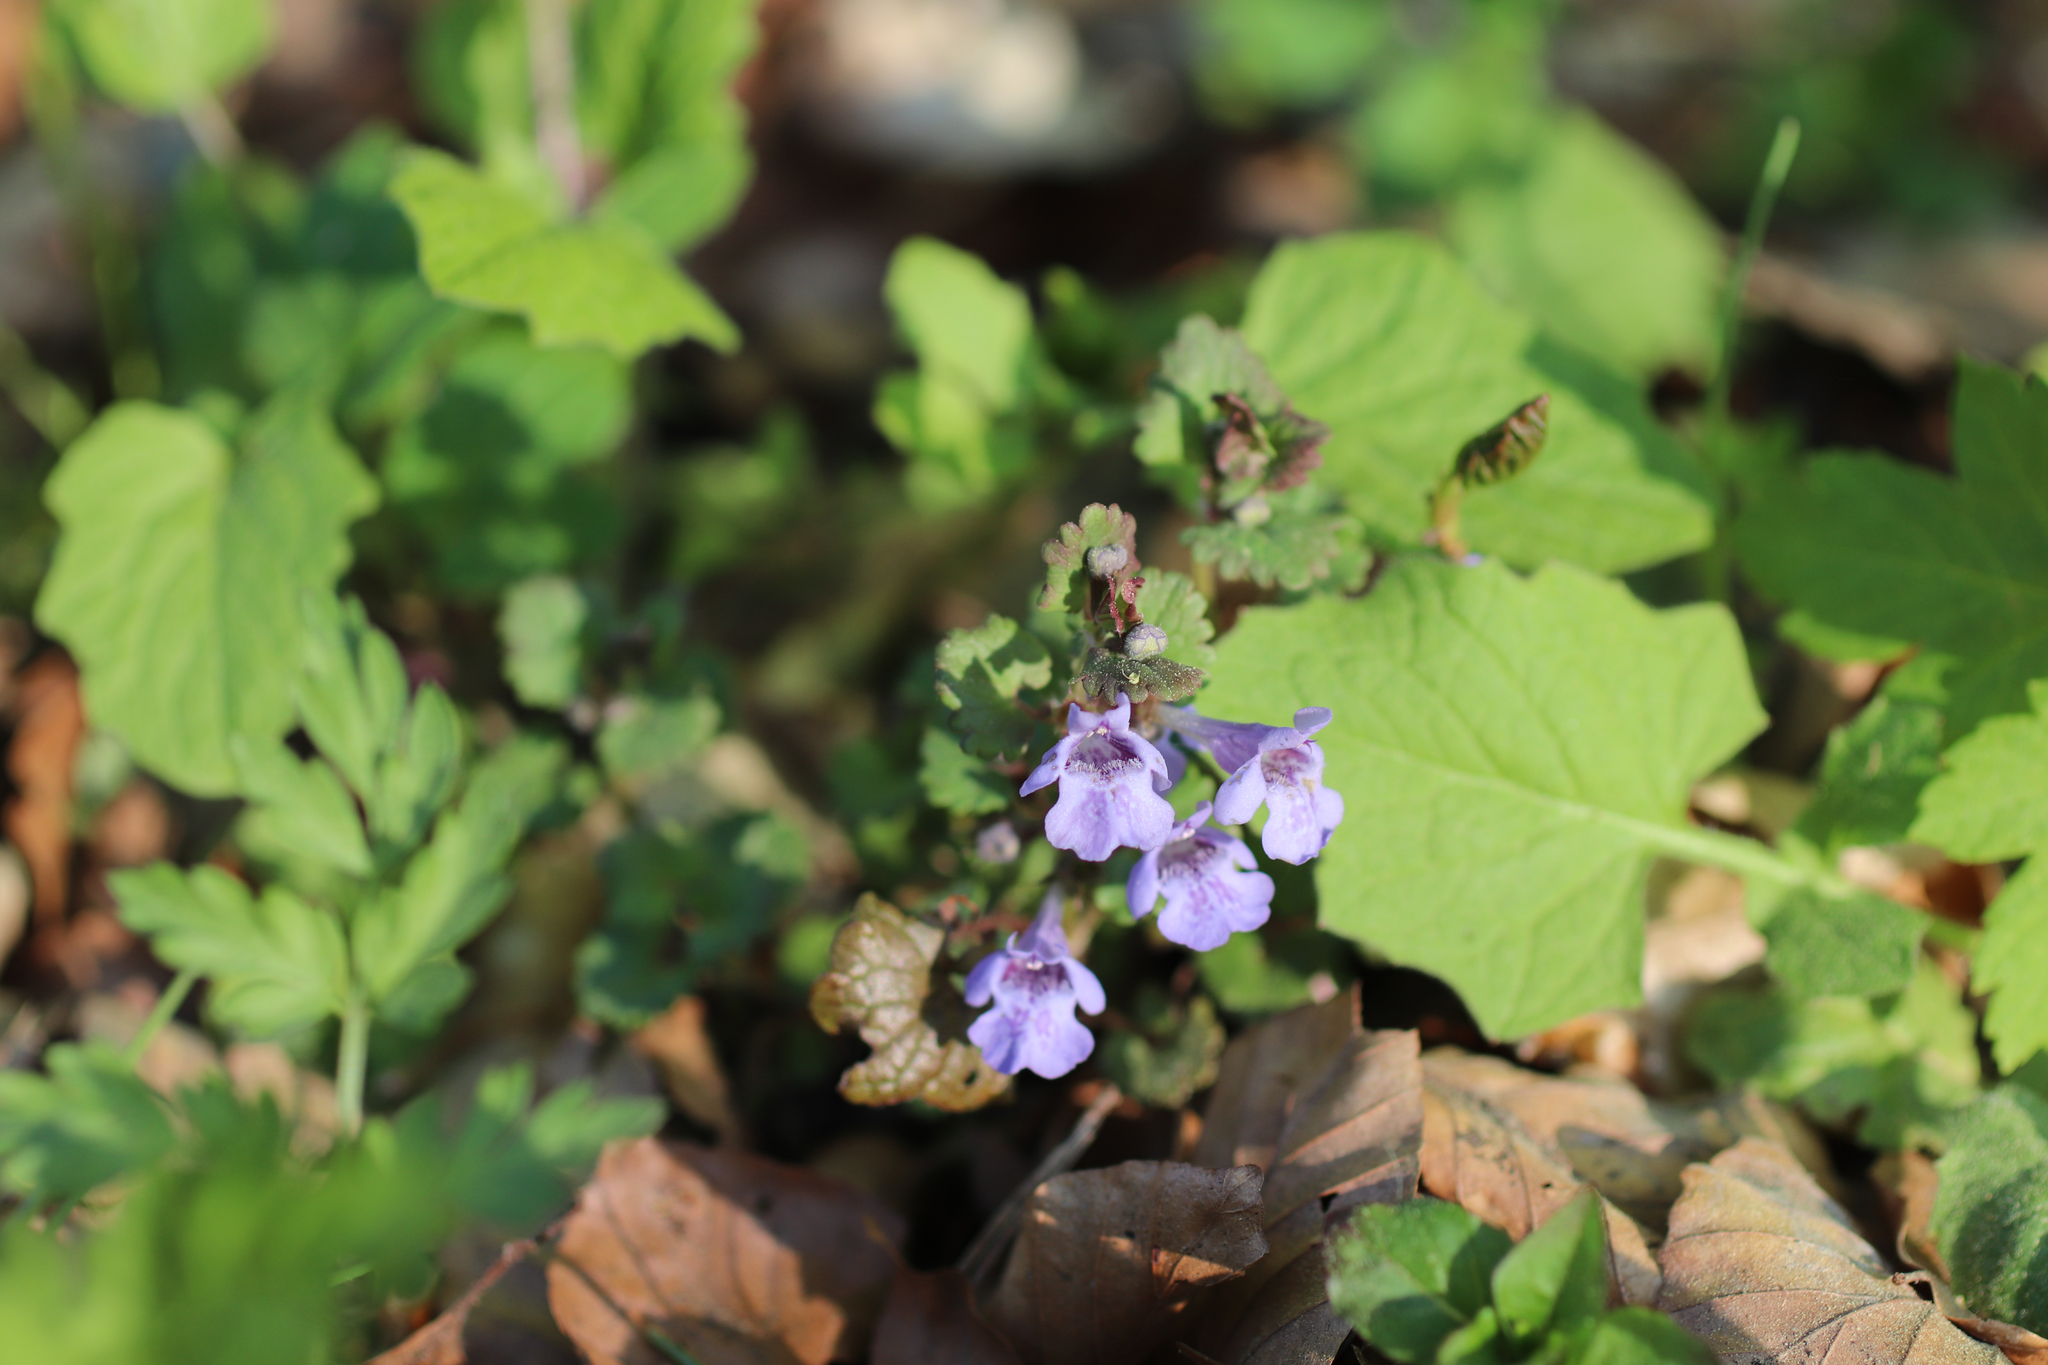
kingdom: Plantae
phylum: Tracheophyta
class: Magnoliopsida
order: Lamiales
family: Lamiaceae
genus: Glechoma
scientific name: Glechoma hederacea
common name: Ground ivy
